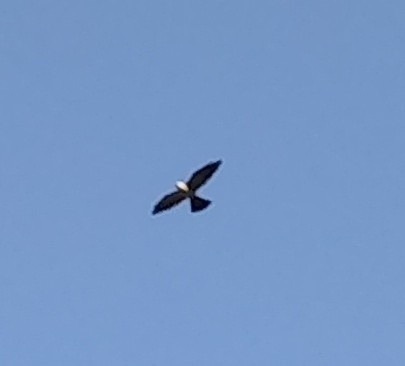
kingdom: Animalia
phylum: Chordata
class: Aves
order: Accipitriformes
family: Accipitridae
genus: Ictinia
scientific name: Ictinia mississippiensis
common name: Mississippi kite
